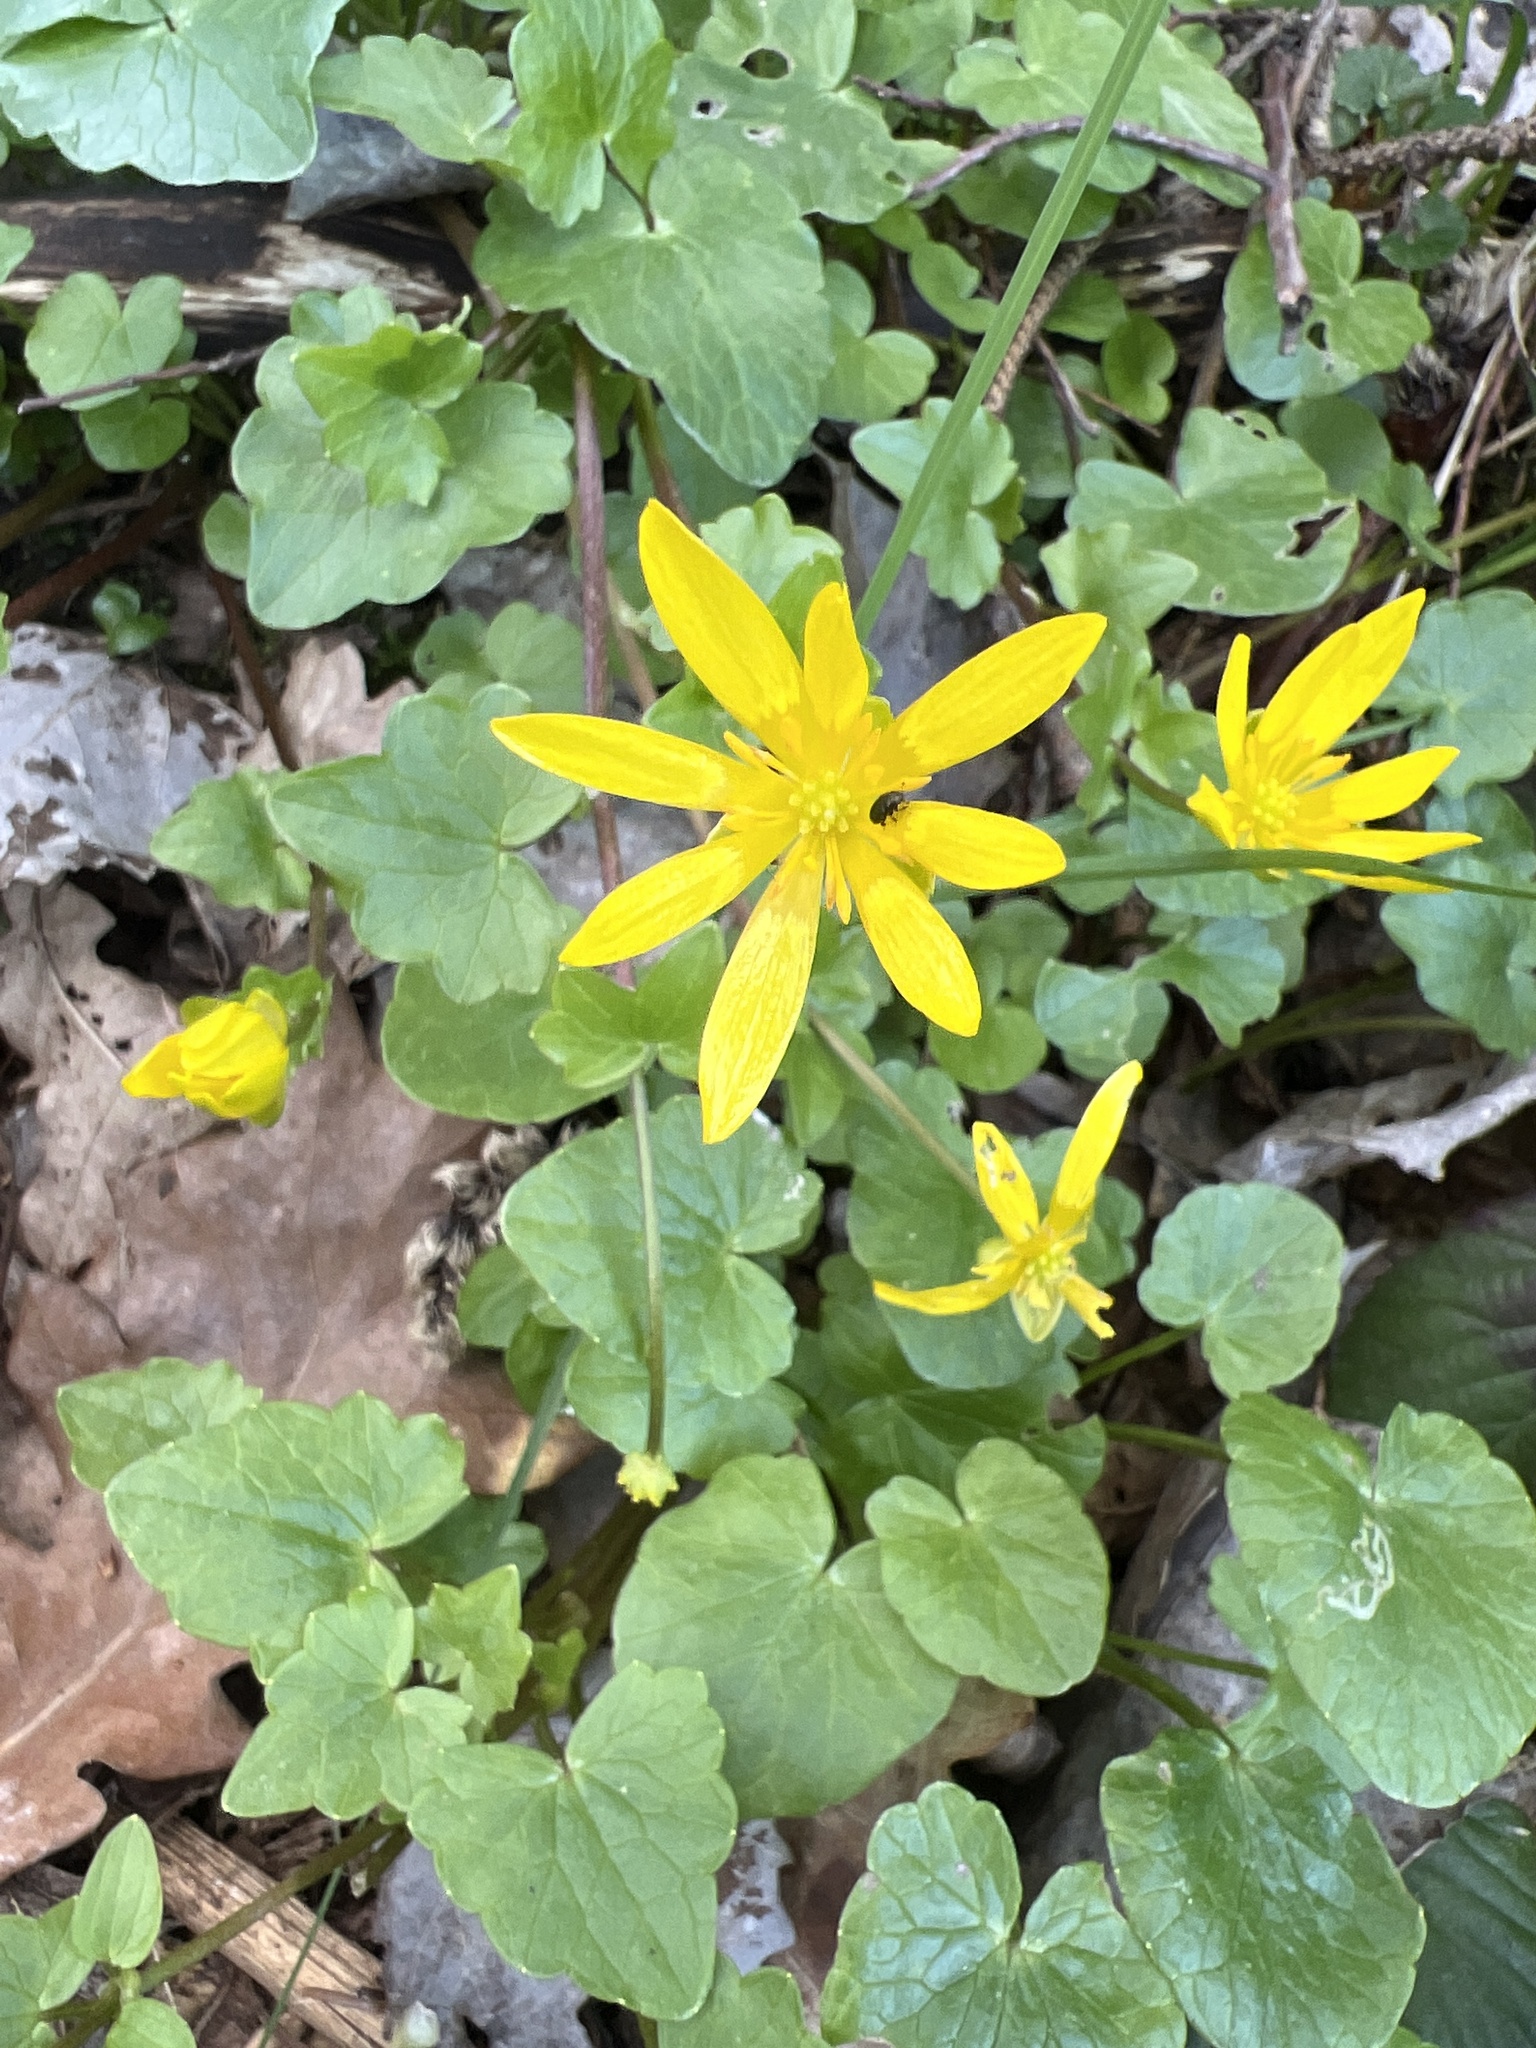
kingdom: Plantae
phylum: Tracheophyta
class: Magnoliopsida
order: Ranunculales
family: Ranunculaceae
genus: Ficaria
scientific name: Ficaria verna
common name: Lesser celandine
